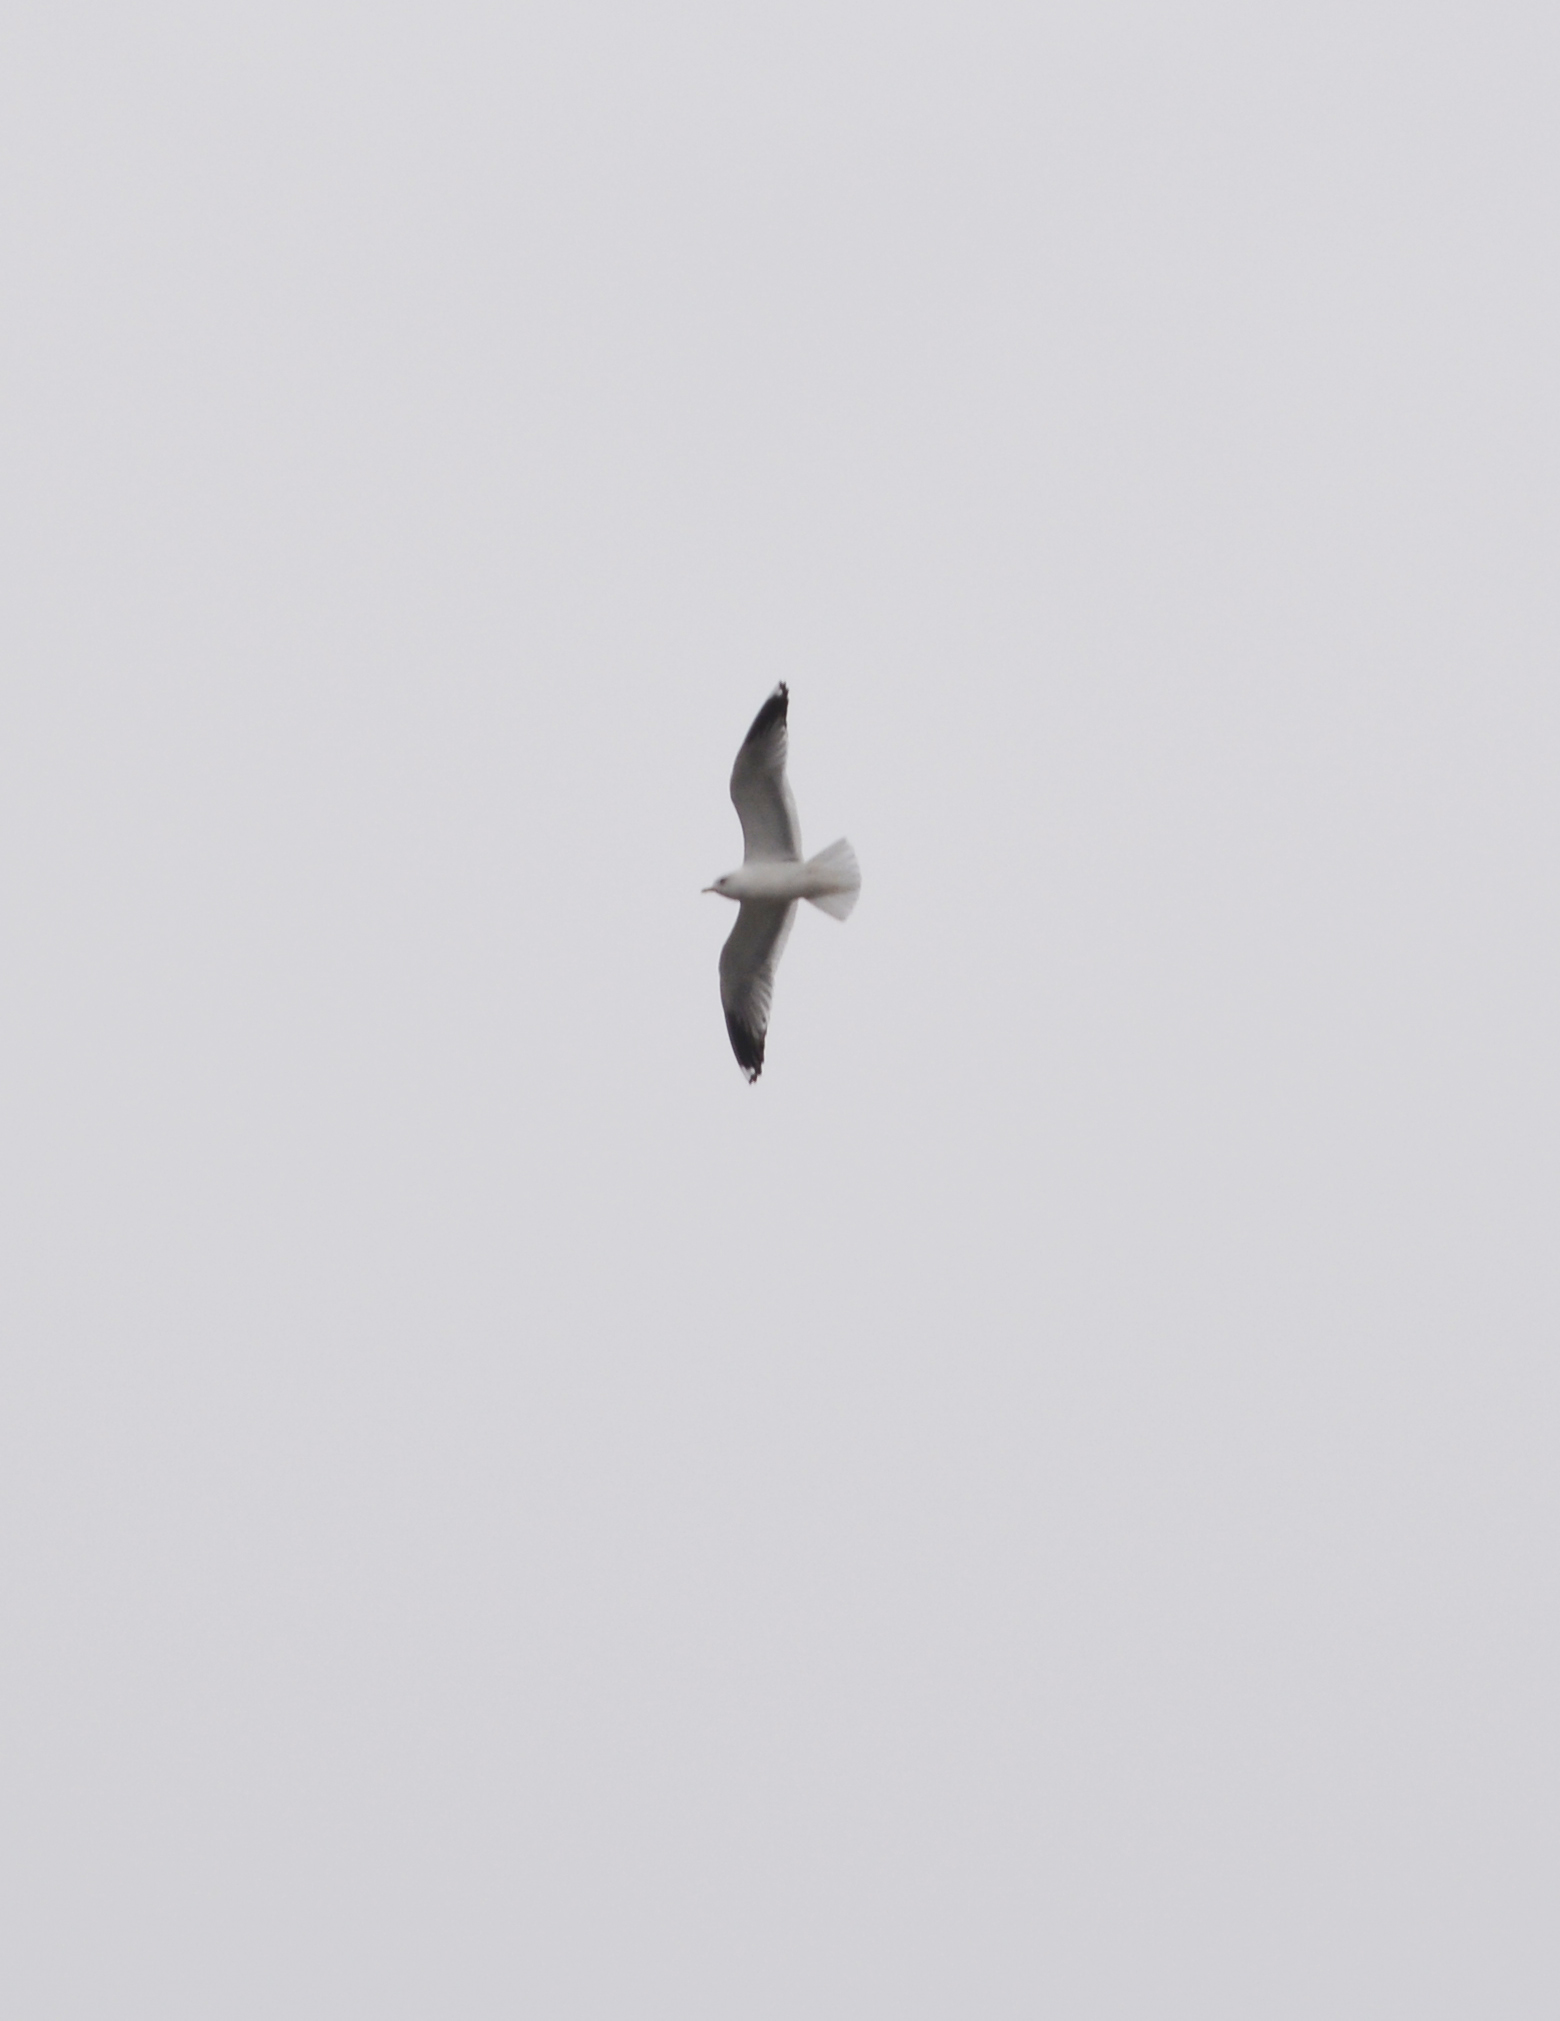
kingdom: Animalia
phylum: Chordata
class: Aves
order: Charadriiformes
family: Laridae
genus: Larus
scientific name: Larus canus
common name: Mew gull
